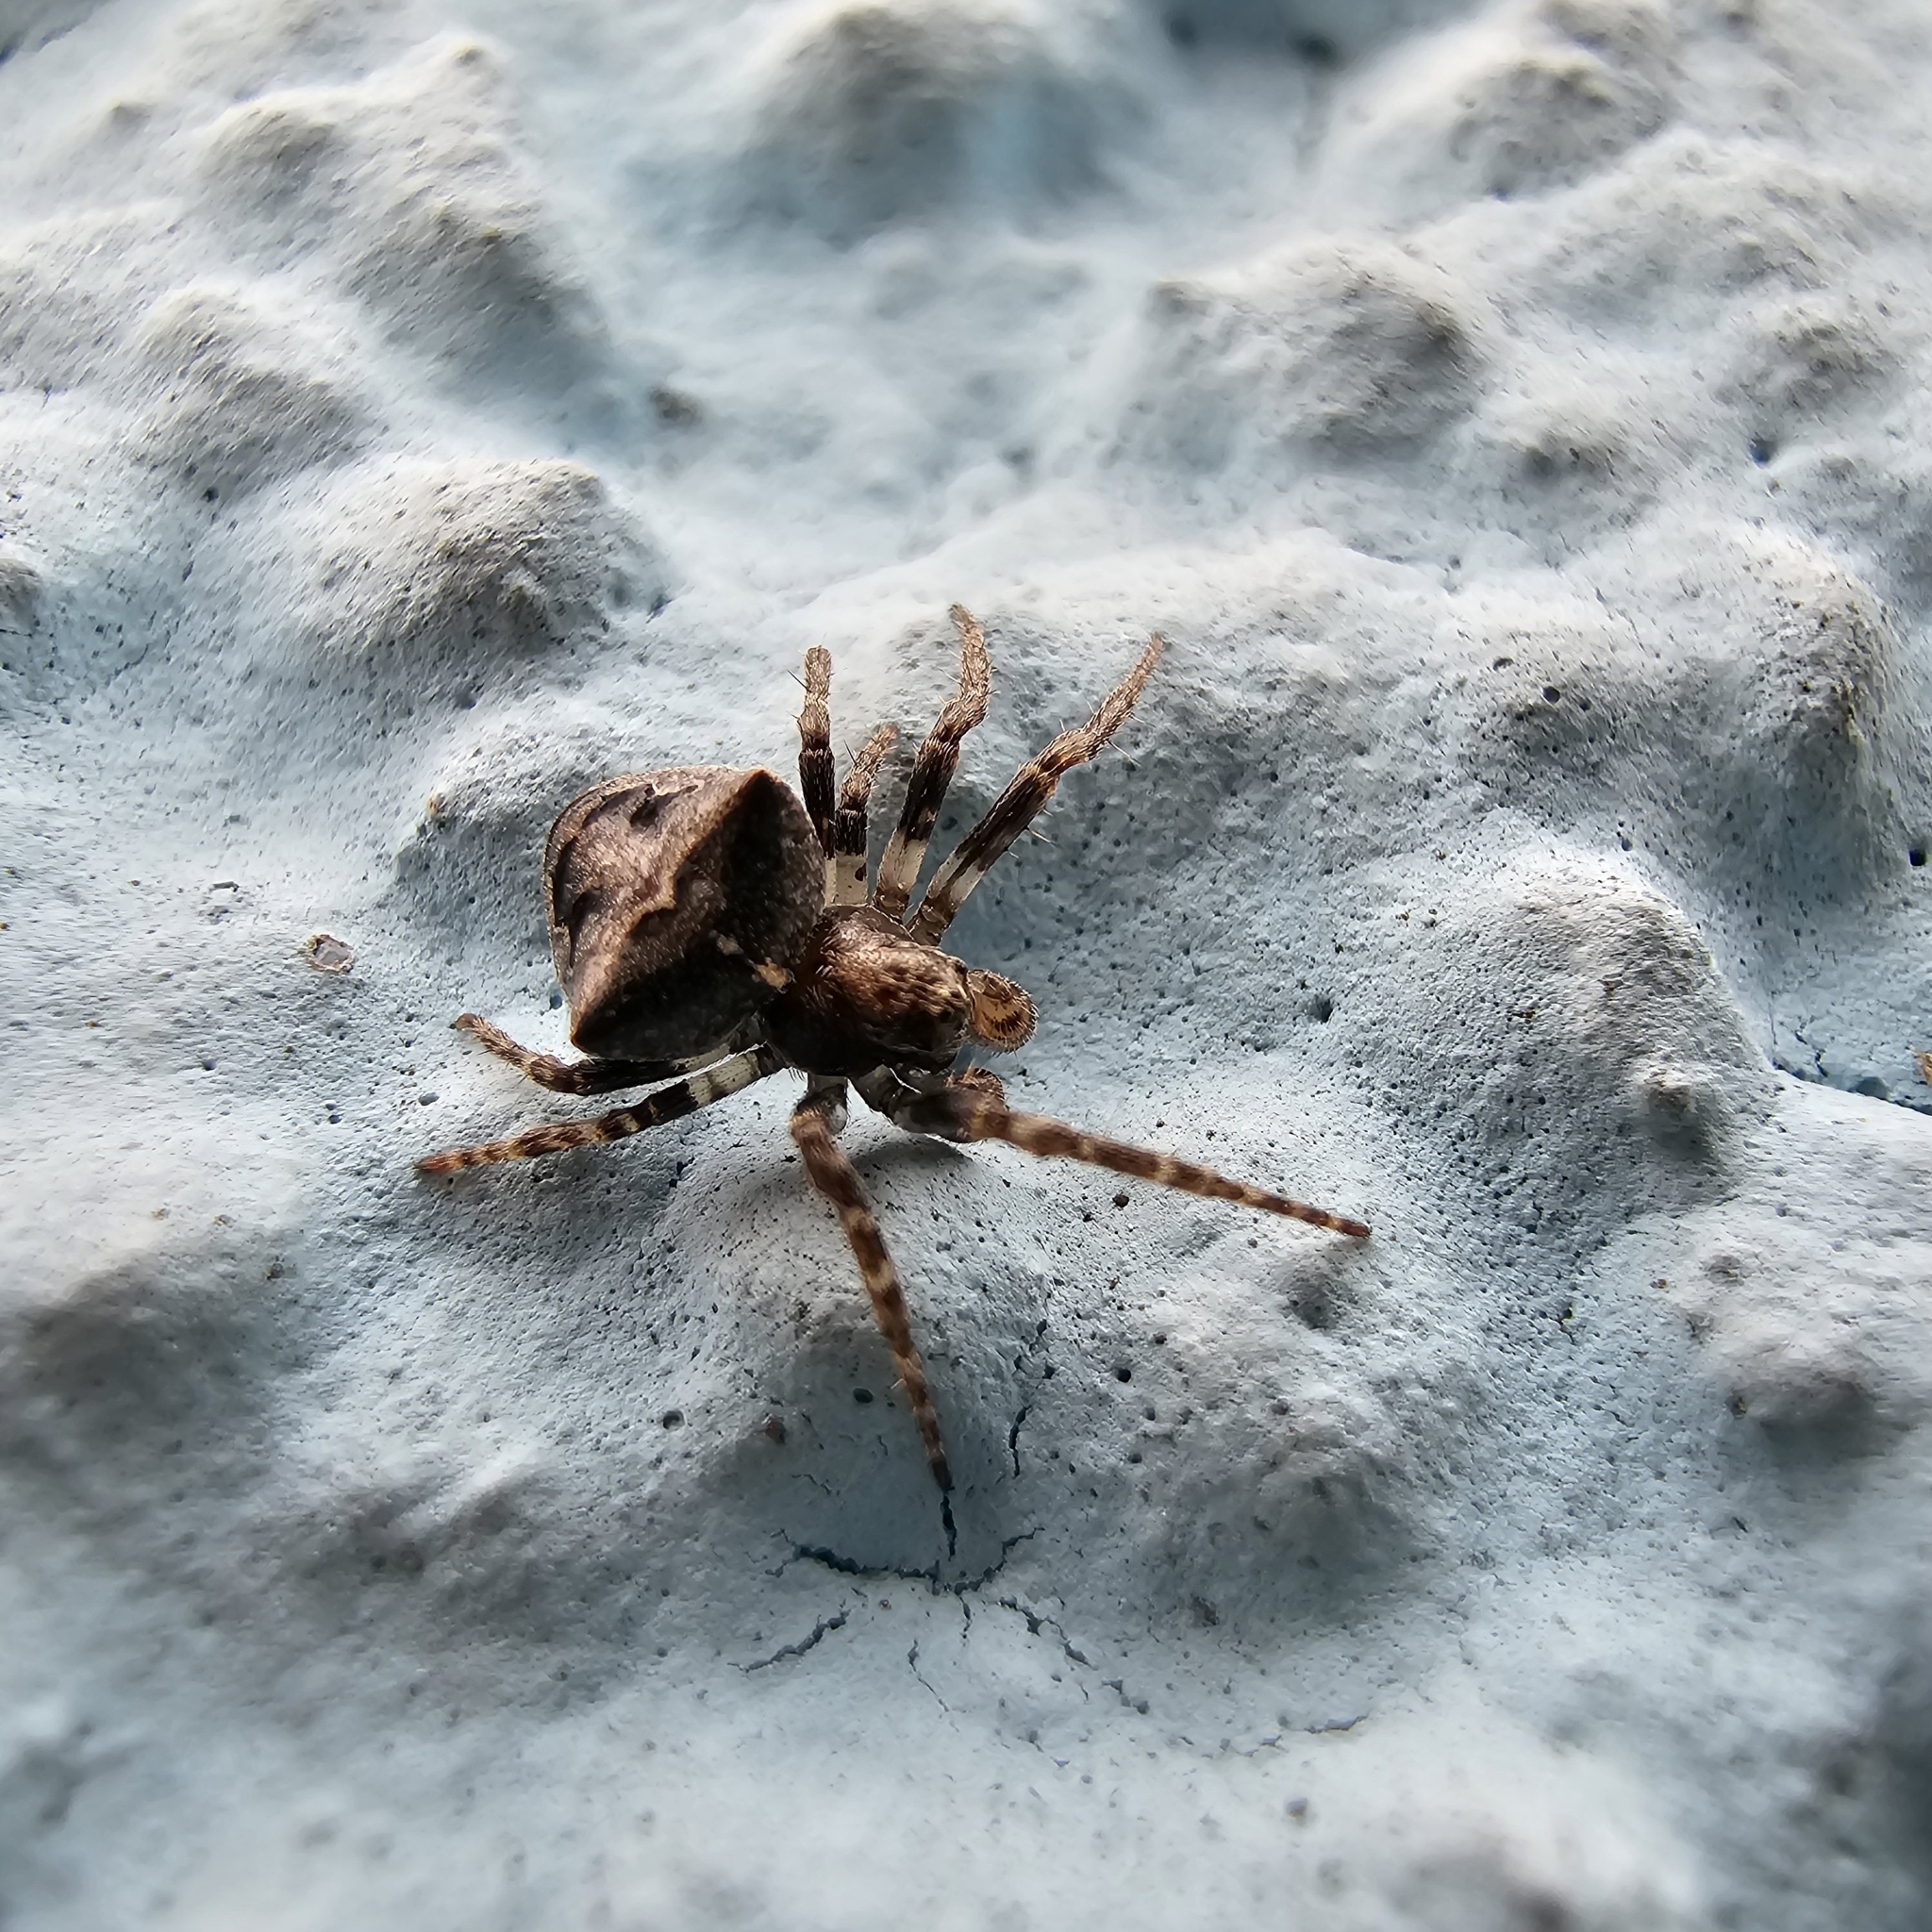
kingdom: Animalia
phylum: Arthropoda
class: Arachnida
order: Araneae
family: Araneidae
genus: Gibbaranea
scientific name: Gibbaranea bituberculata
